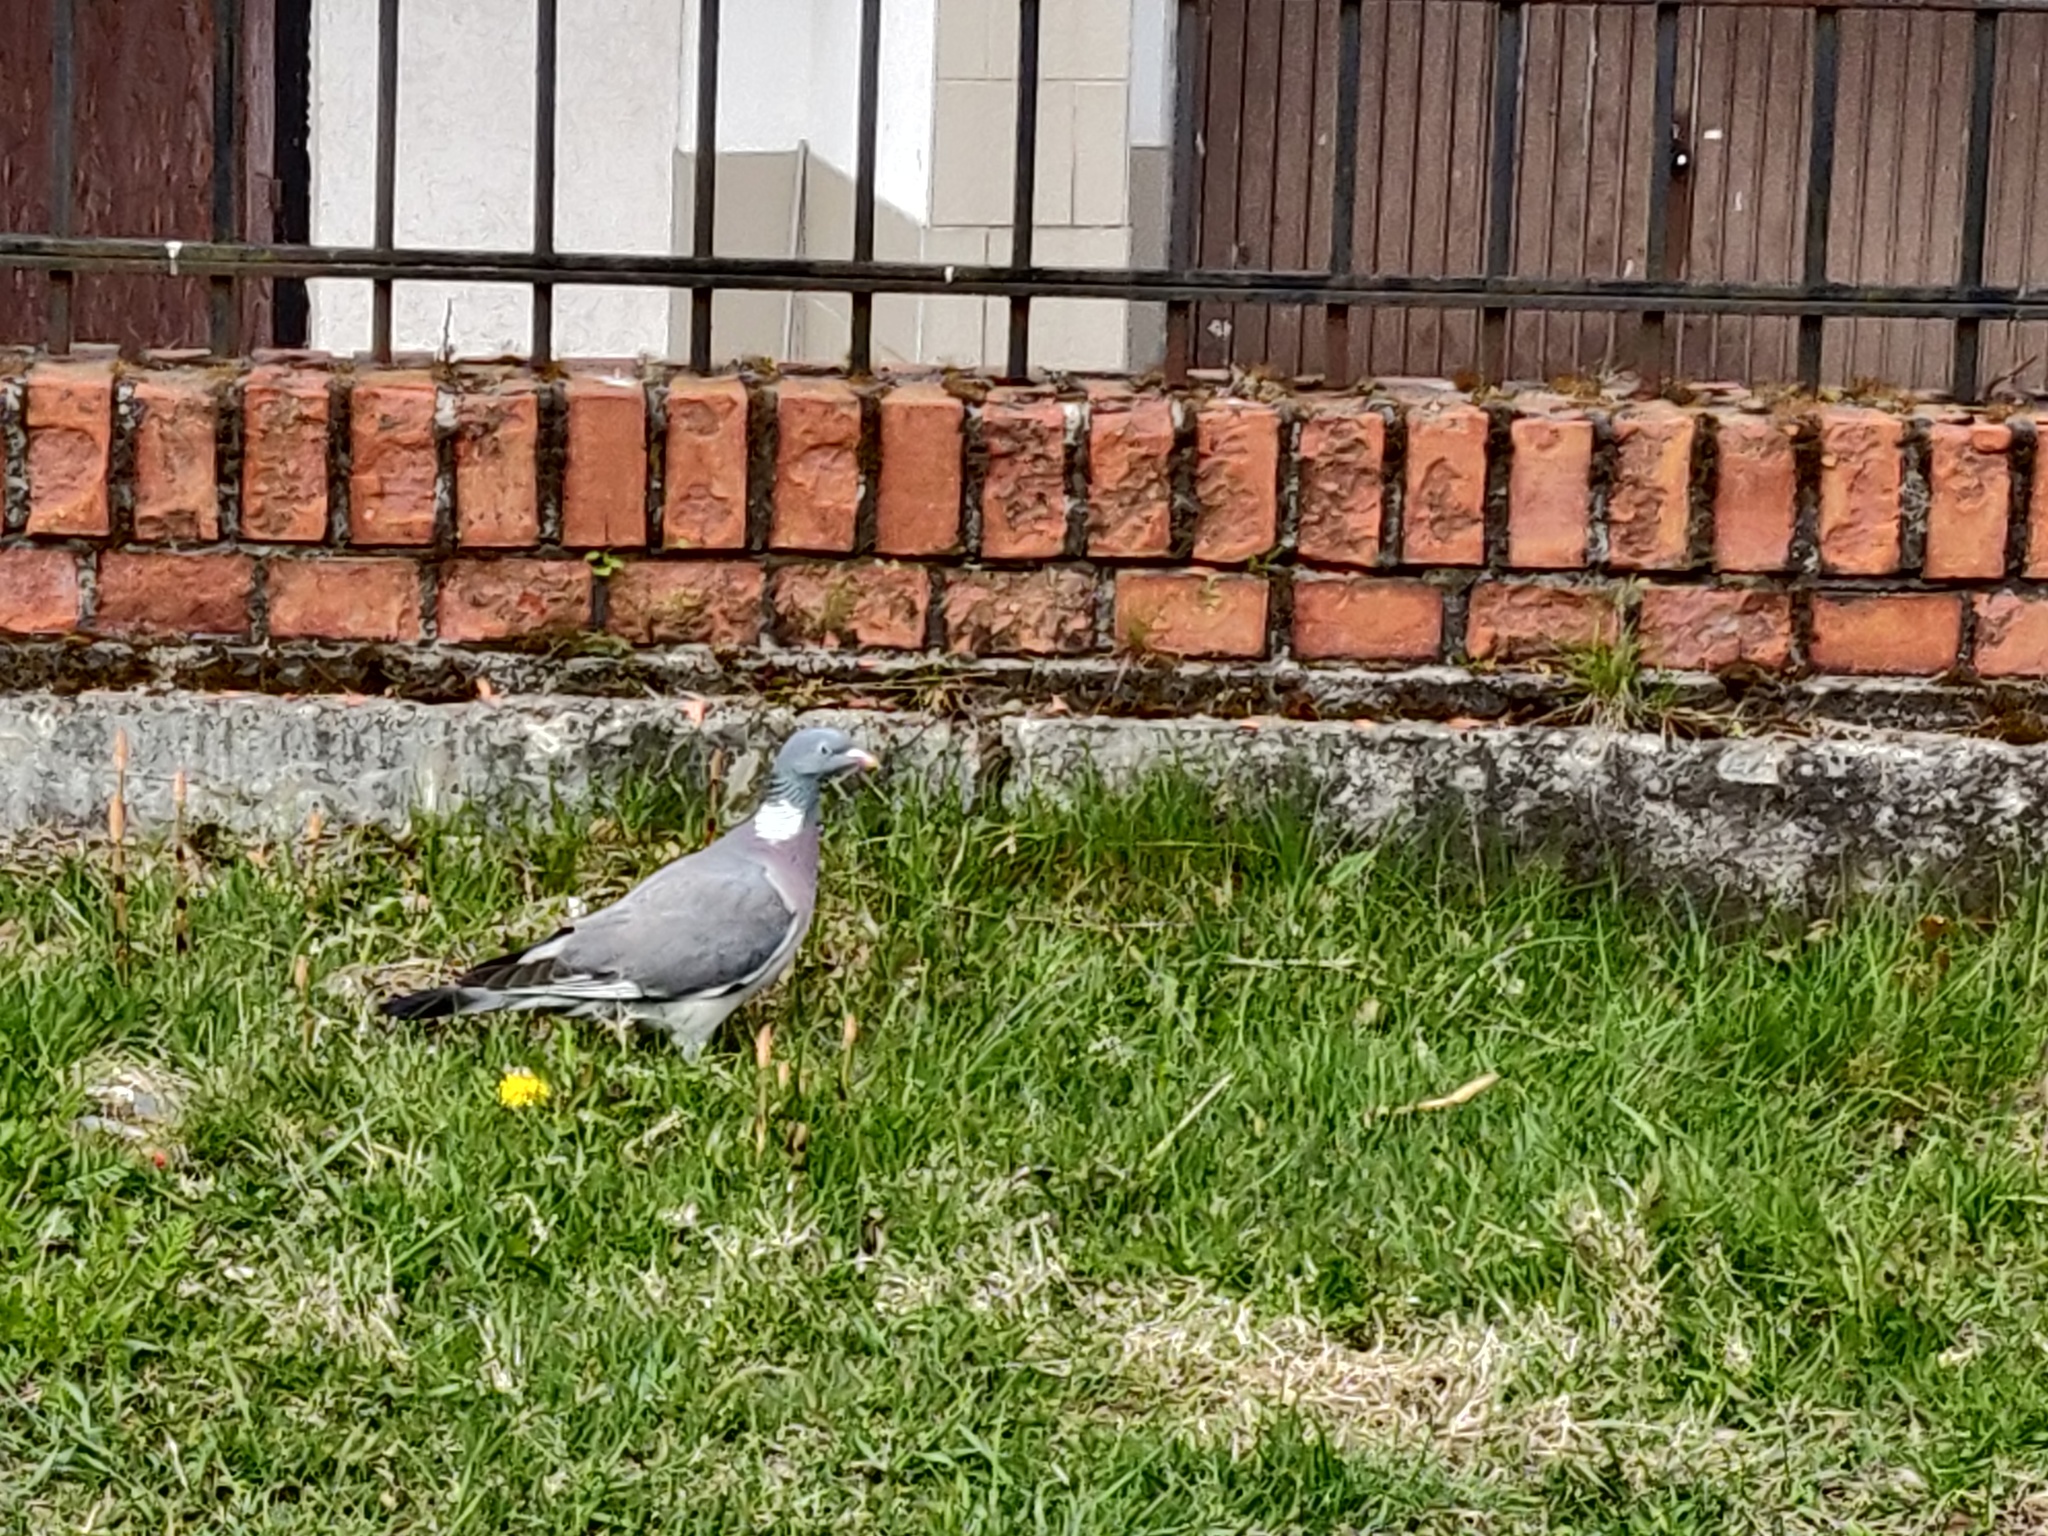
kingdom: Animalia
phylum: Chordata
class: Aves
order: Columbiformes
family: Columbidae
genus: Columba
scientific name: Columba palumbus
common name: Common wood pigeon
